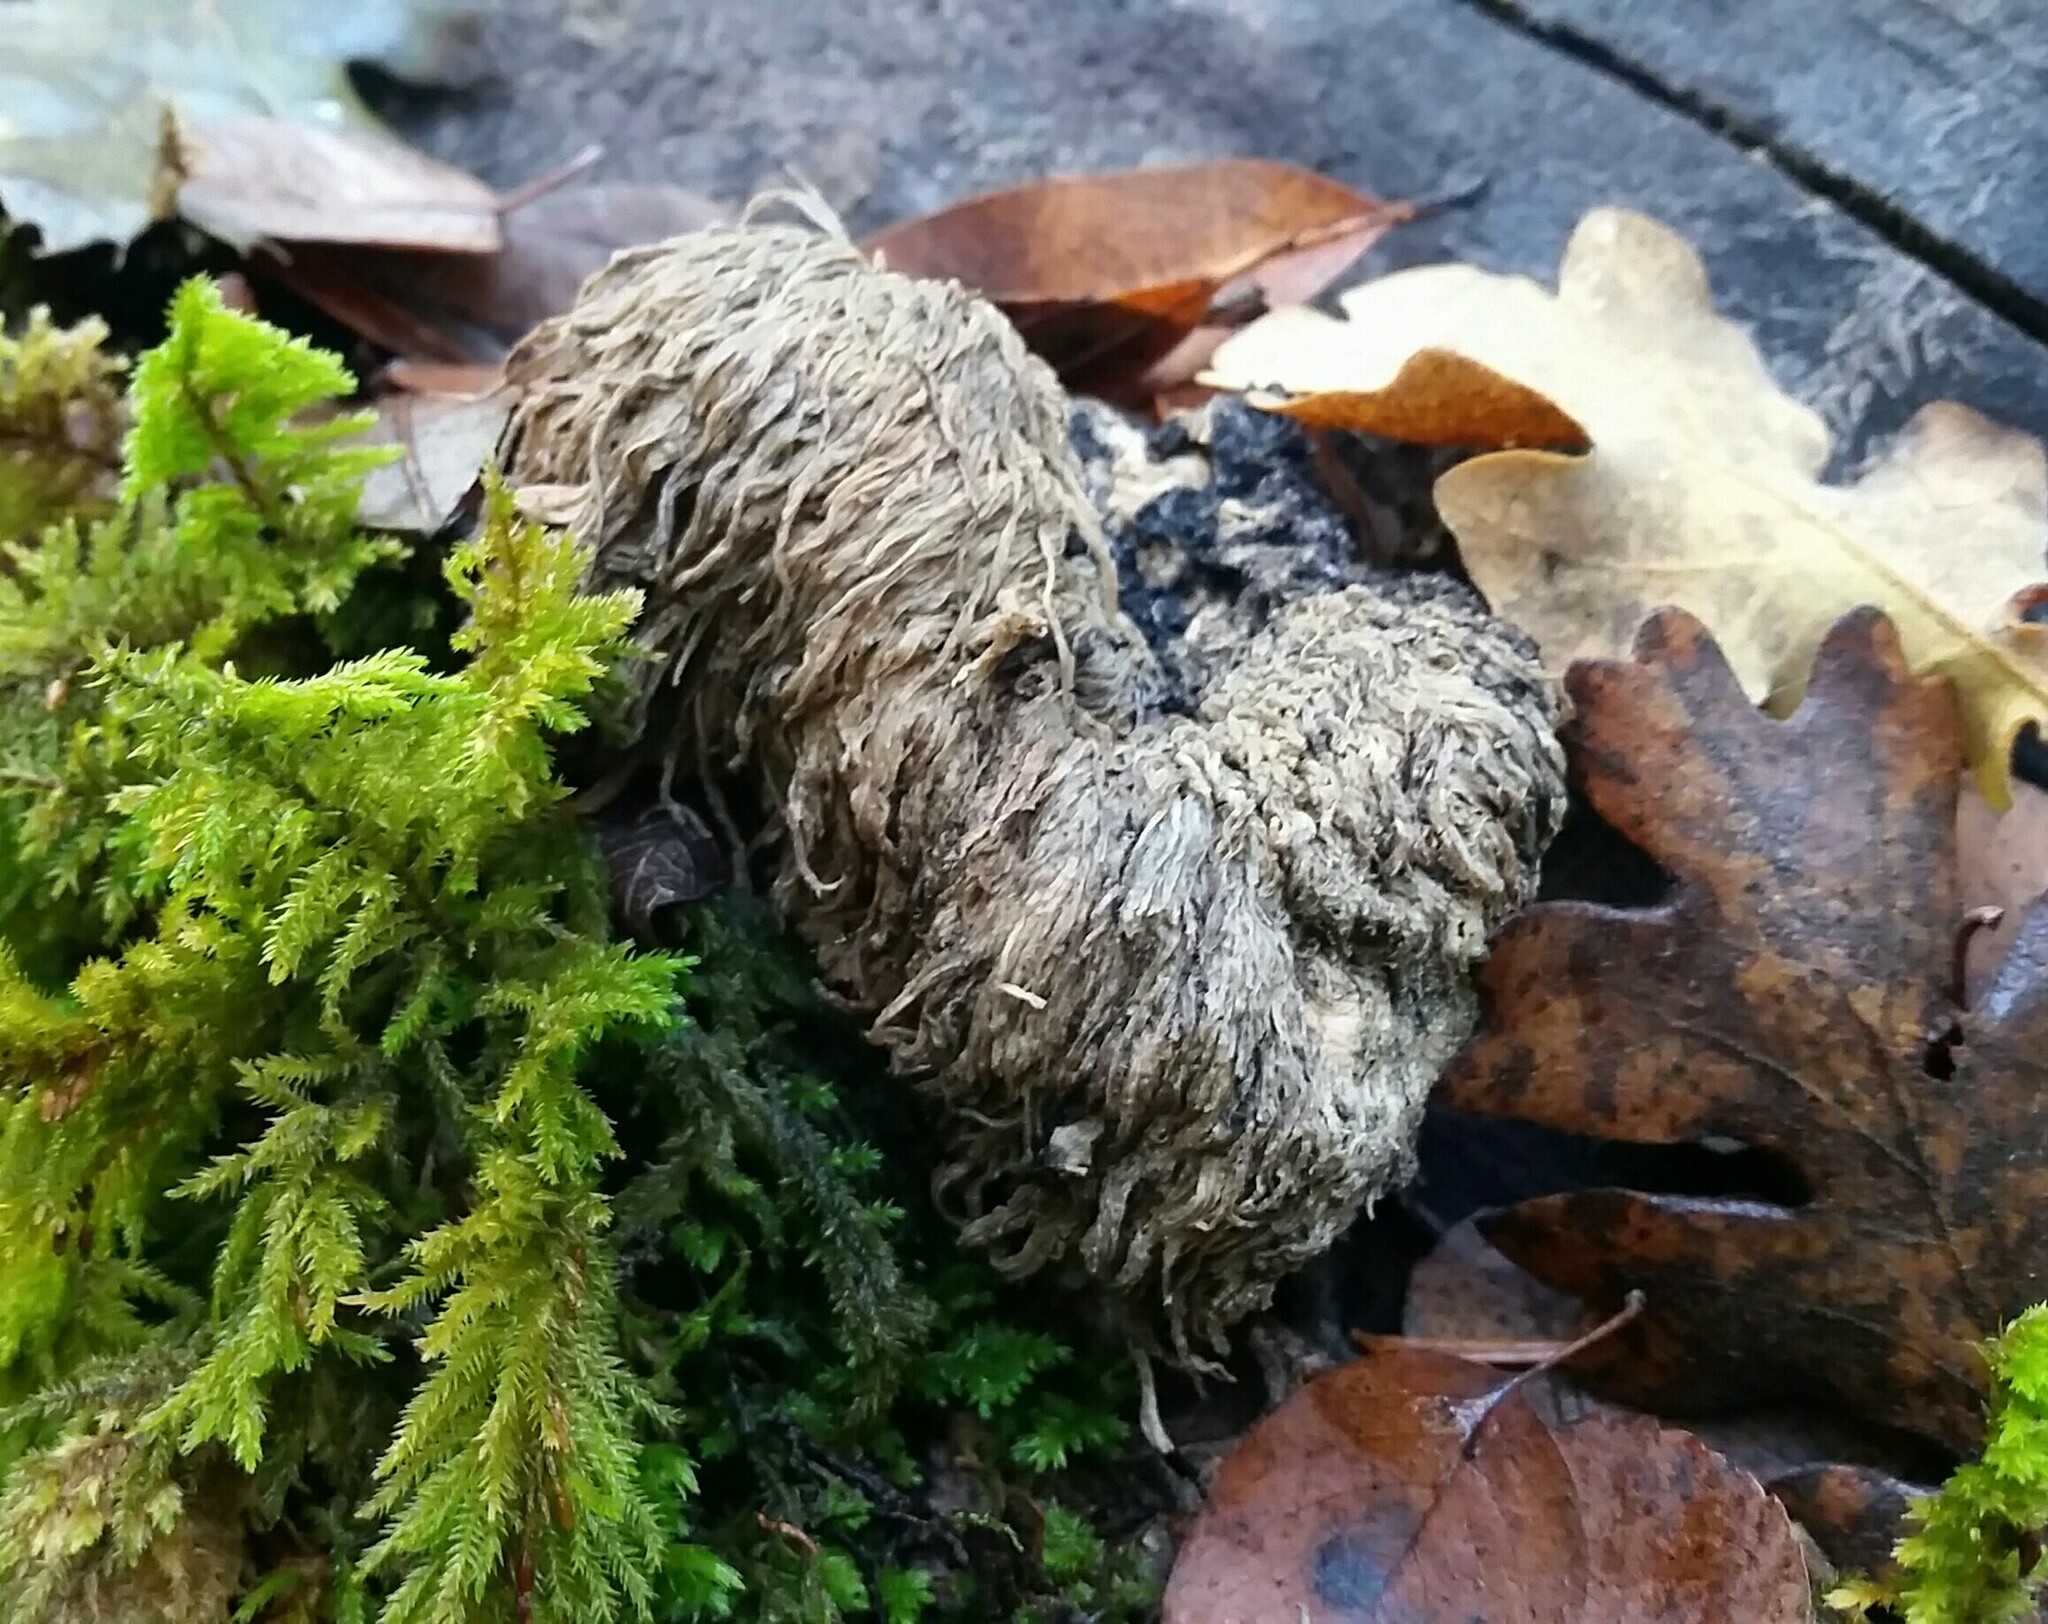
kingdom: Fungi
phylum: Basidiomycota
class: Agaricomycetes
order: Russulales
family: Hericiaceae
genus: Hericium
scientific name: Hericium erinaceus
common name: Bearded tooth
